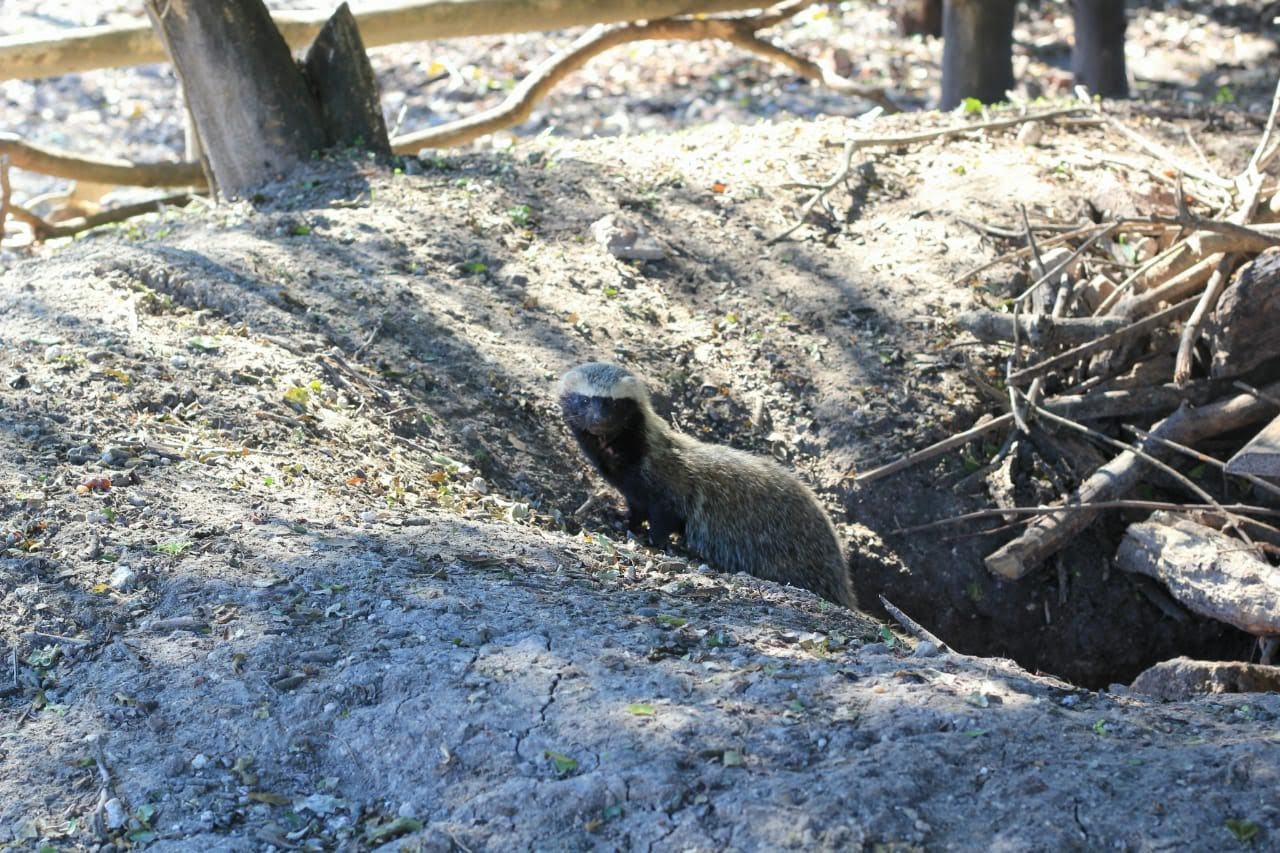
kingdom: Animalia
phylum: Chordata
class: Mammalia
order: Carnivora
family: Mustelidae
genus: Galictis
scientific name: Galictis cuja
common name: Lesser grison
